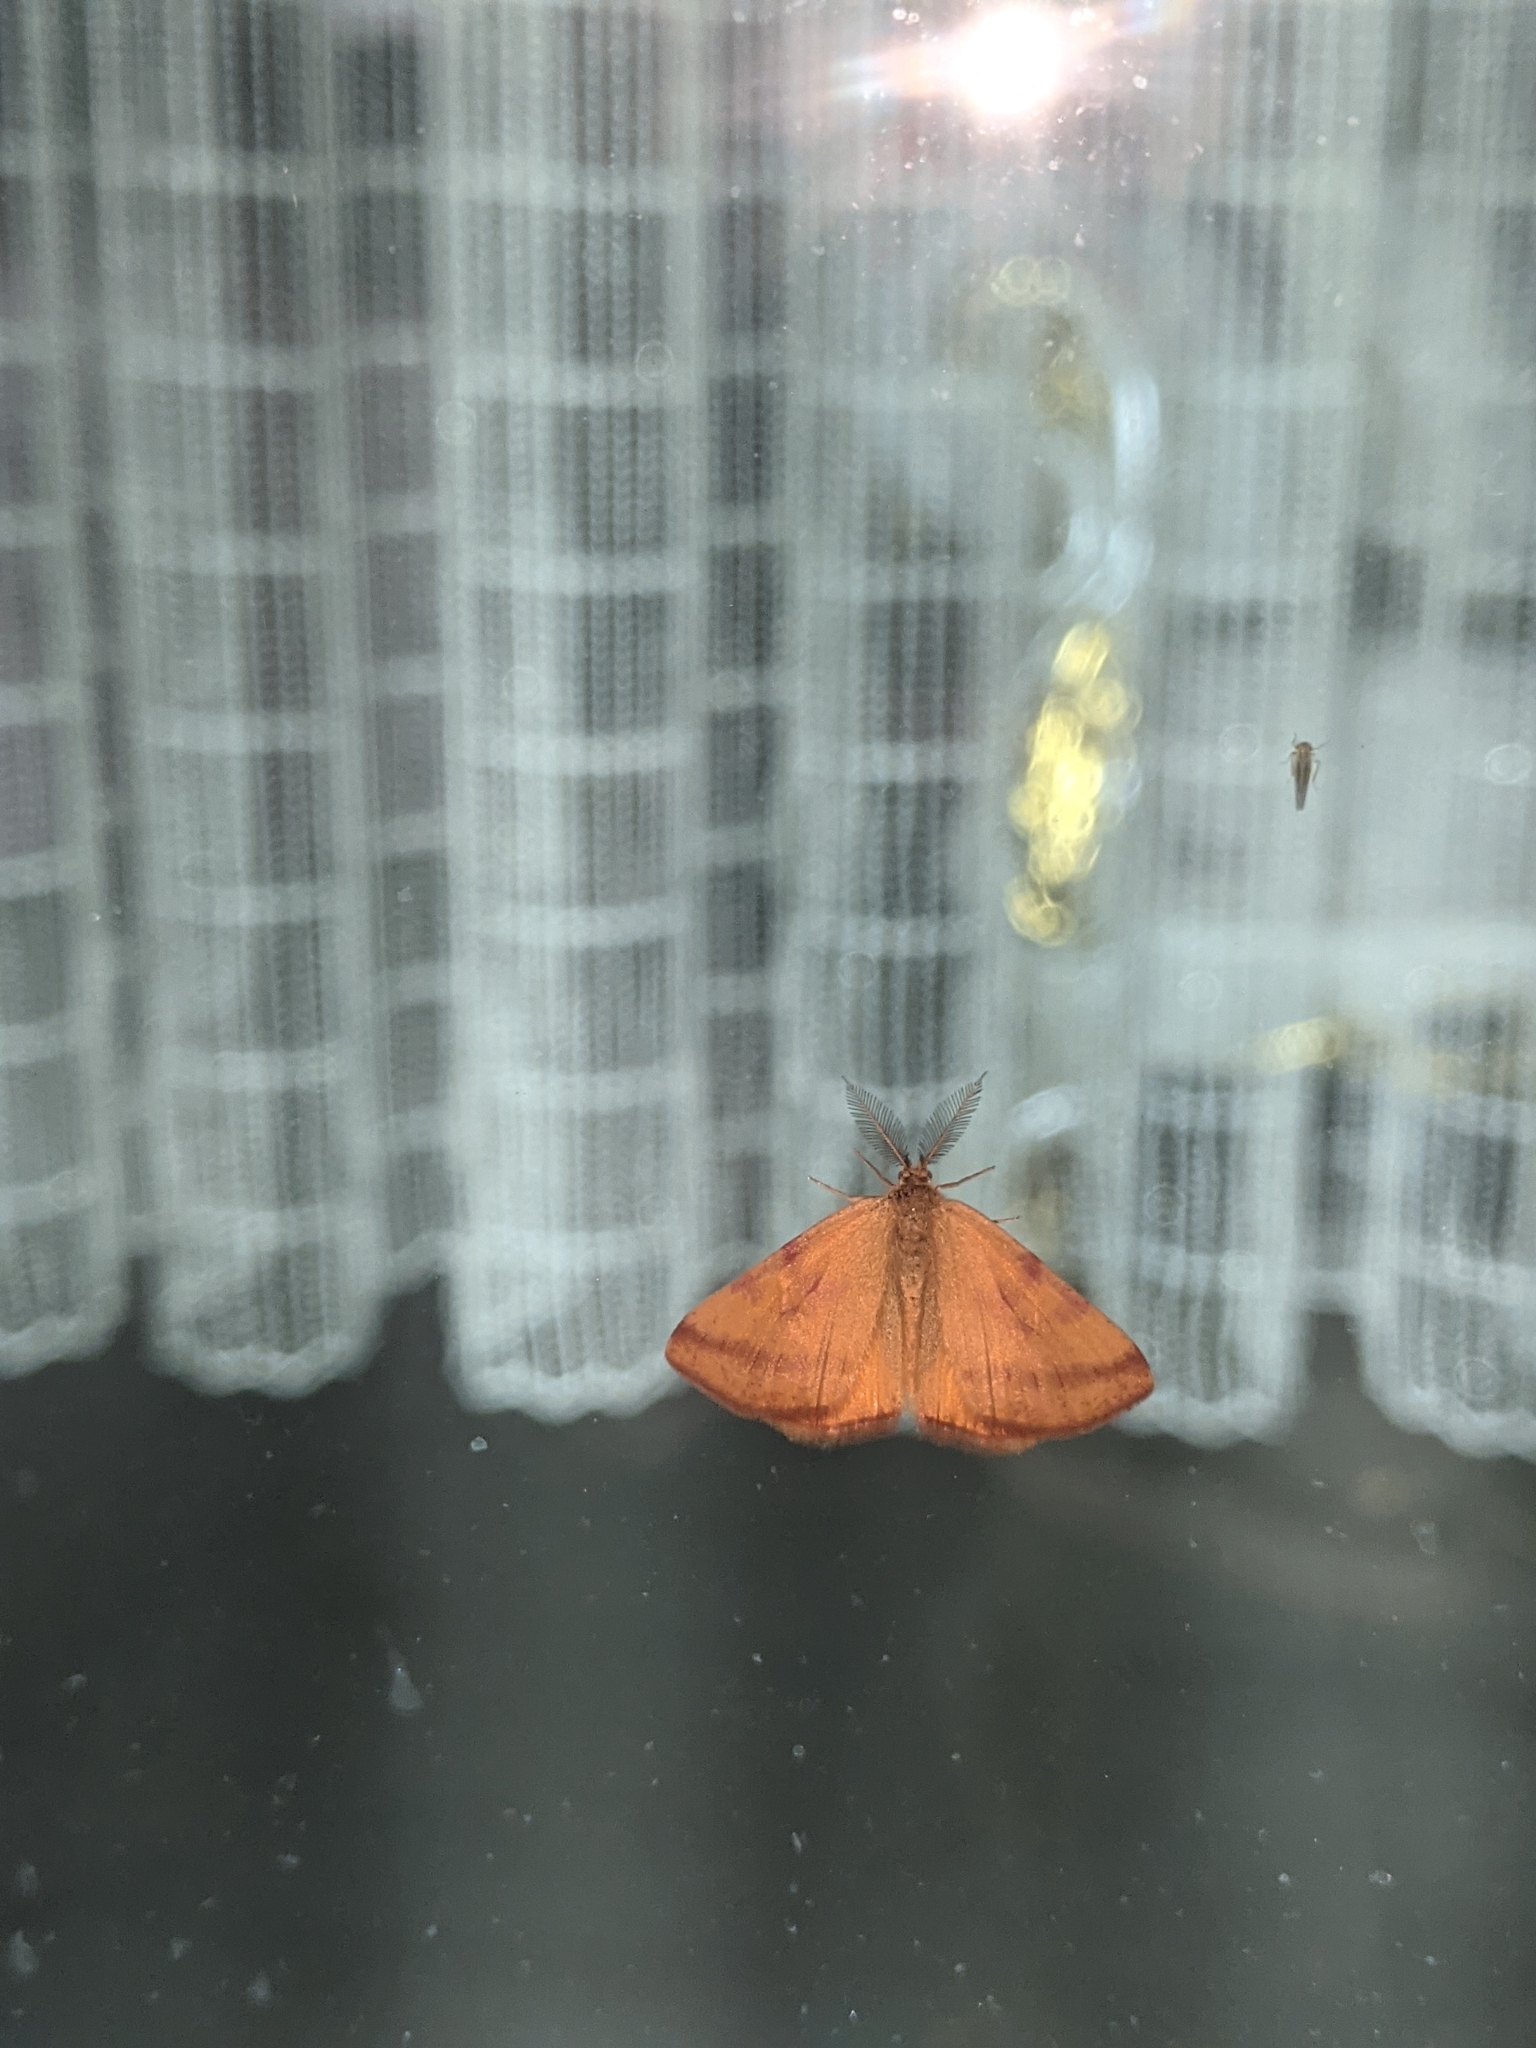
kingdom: Animalia
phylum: Arthropoda
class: Insecta
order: Lepidoptera
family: Geometridae
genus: Lythria
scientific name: Lythria purpuraria
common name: Purple-barred yellow
